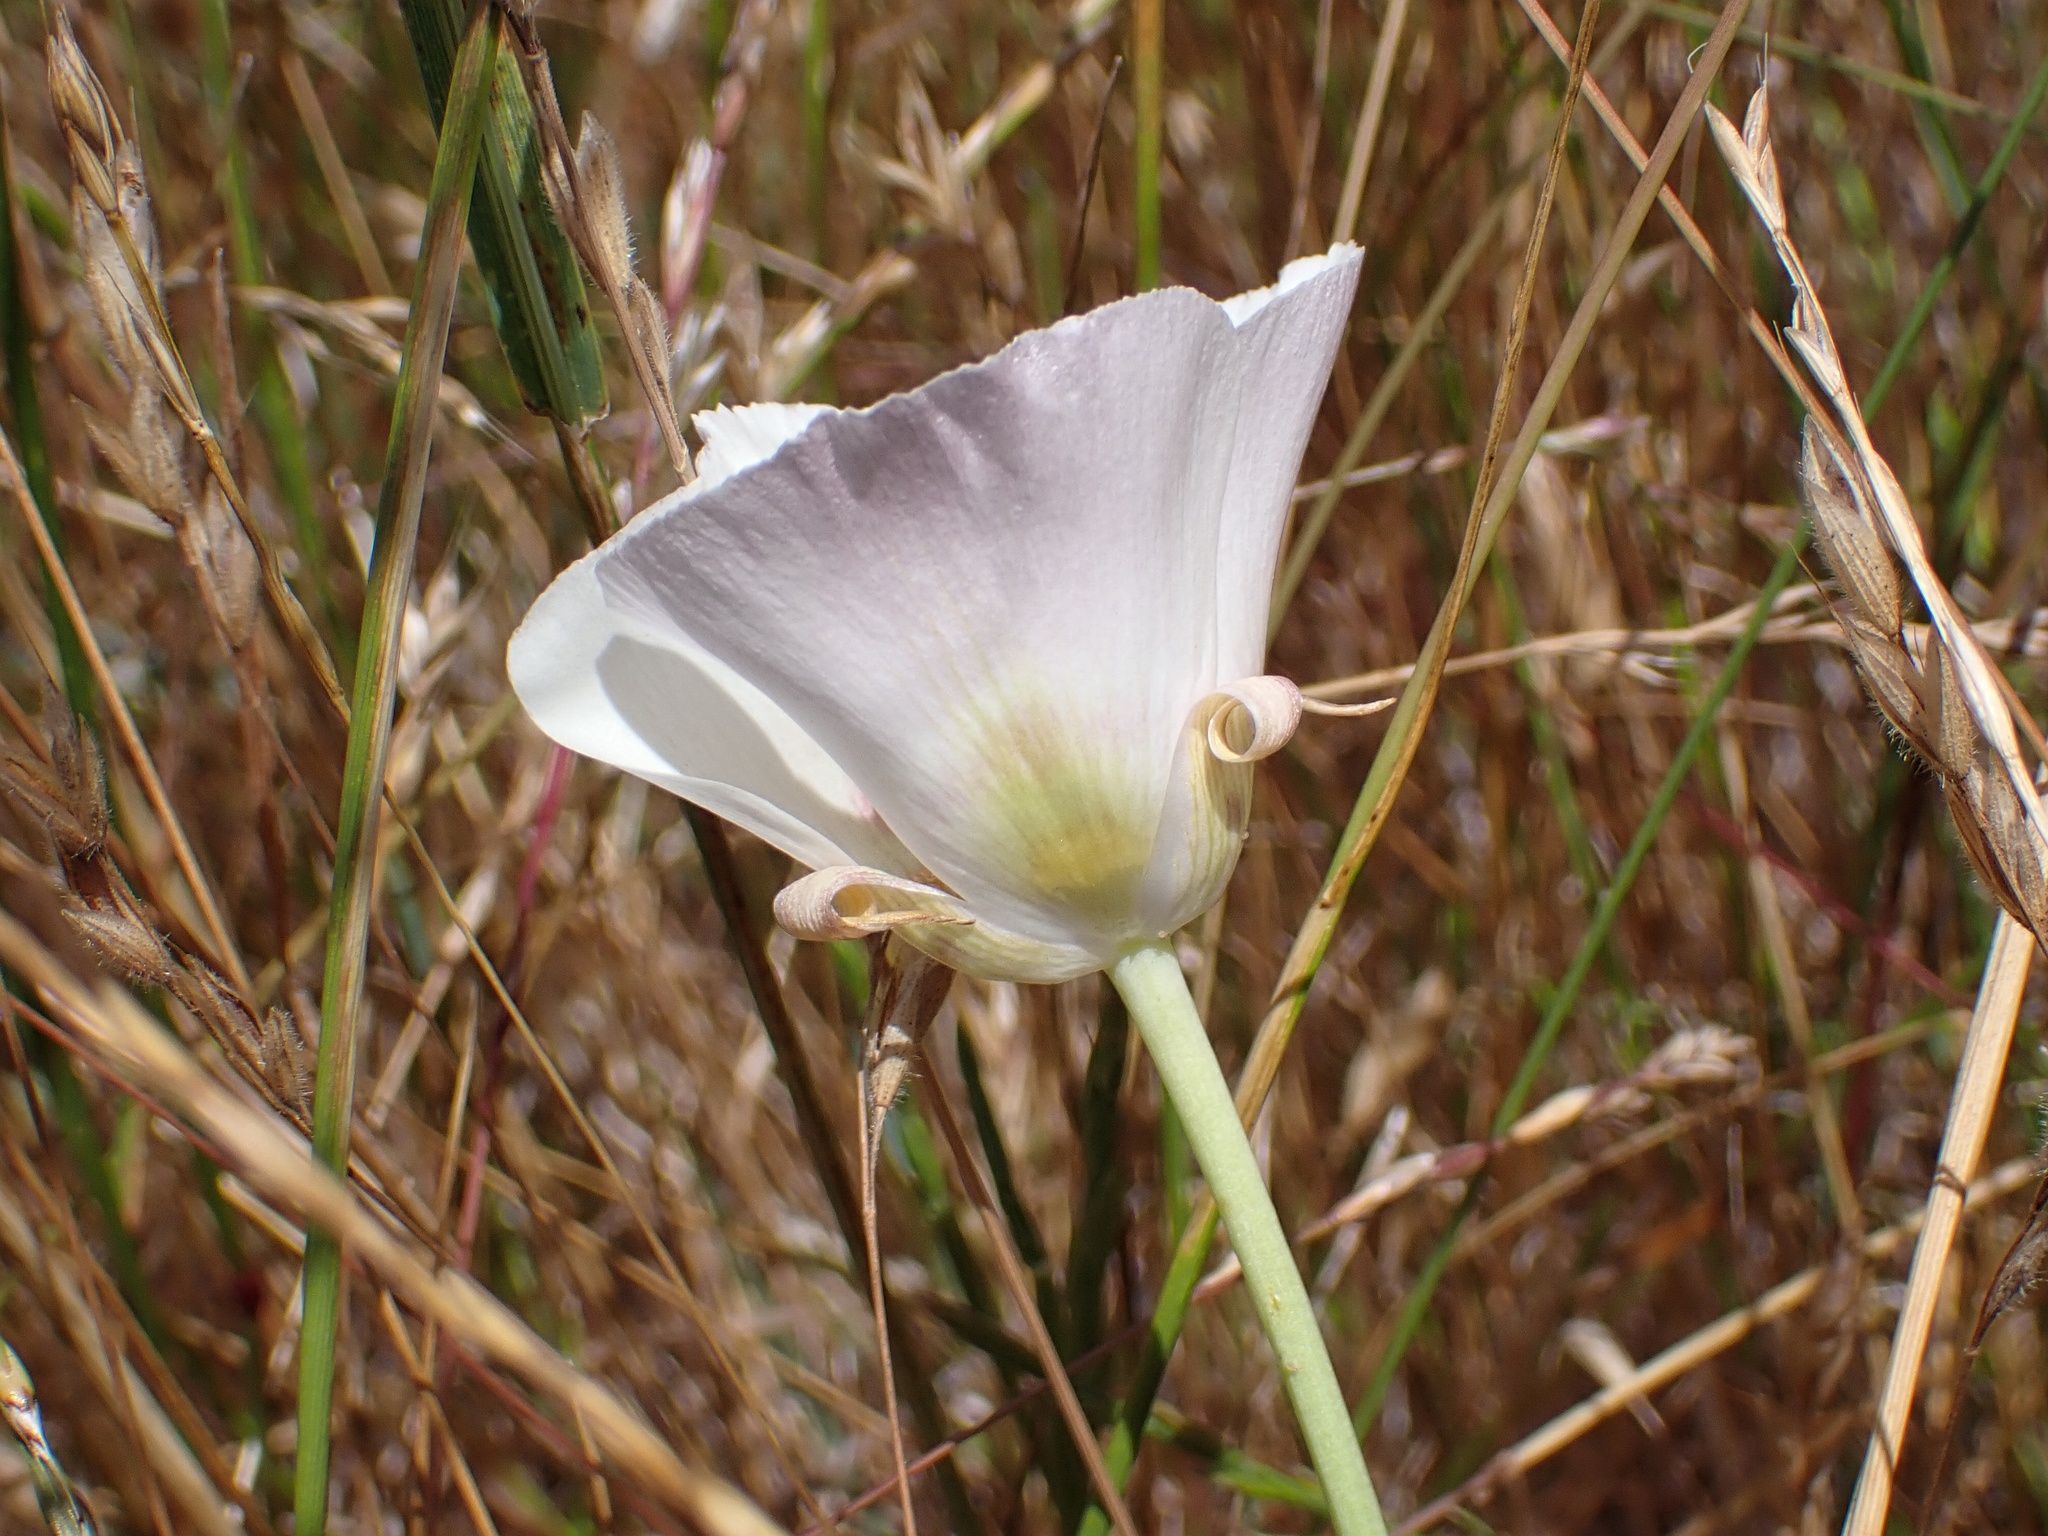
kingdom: Plantae
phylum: Tracheophyta
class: Liliopsida
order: Liliales
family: Liliaceae
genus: Calochortus
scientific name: Calochortus argillosus
